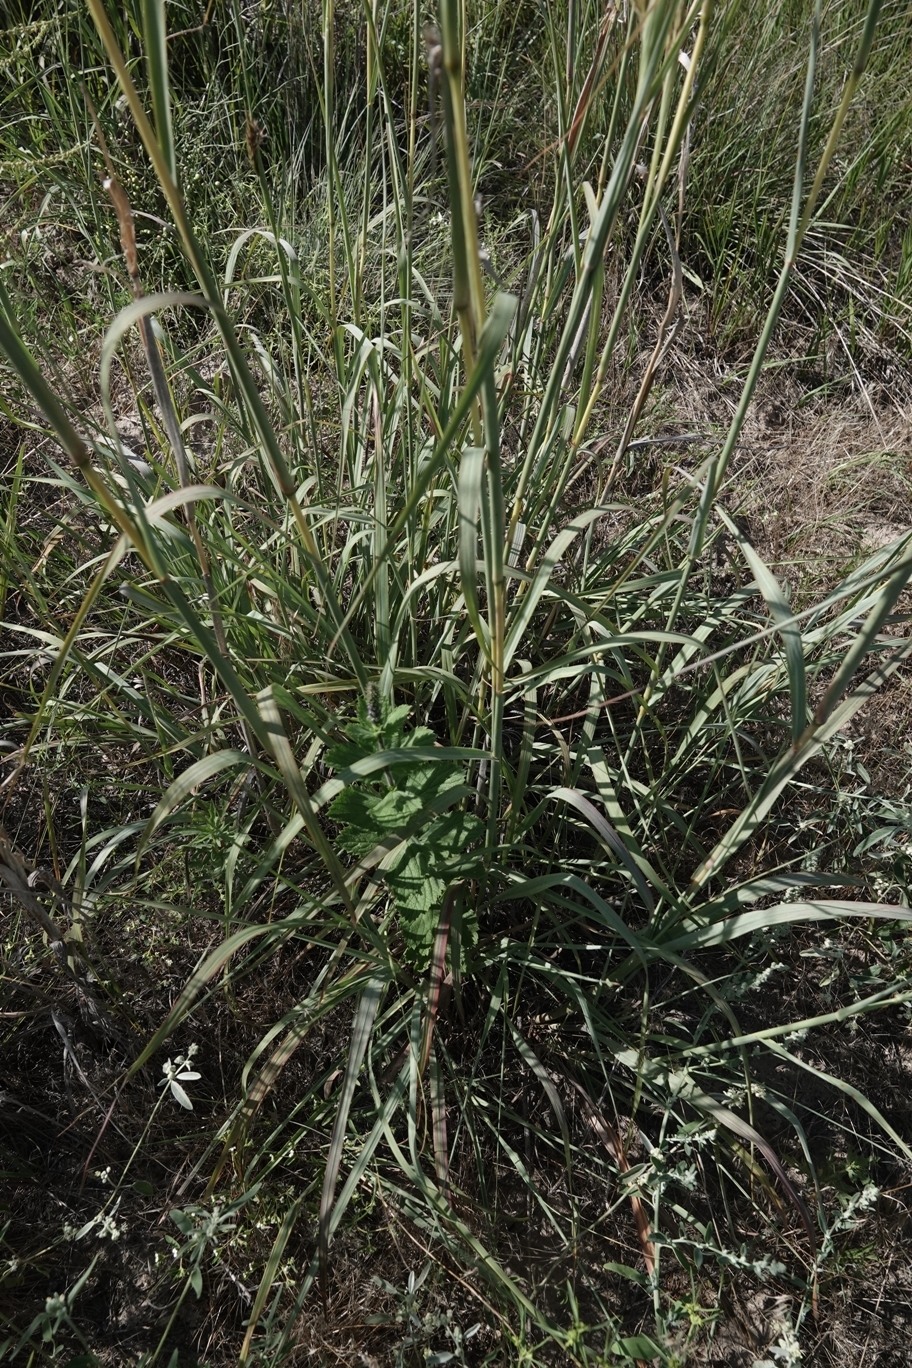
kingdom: Plantae
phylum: Tracheophyta
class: Liliopsida
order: Poales
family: Poaceae
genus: Andropogon
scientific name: Andropogon hallii
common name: Sand bluestem
